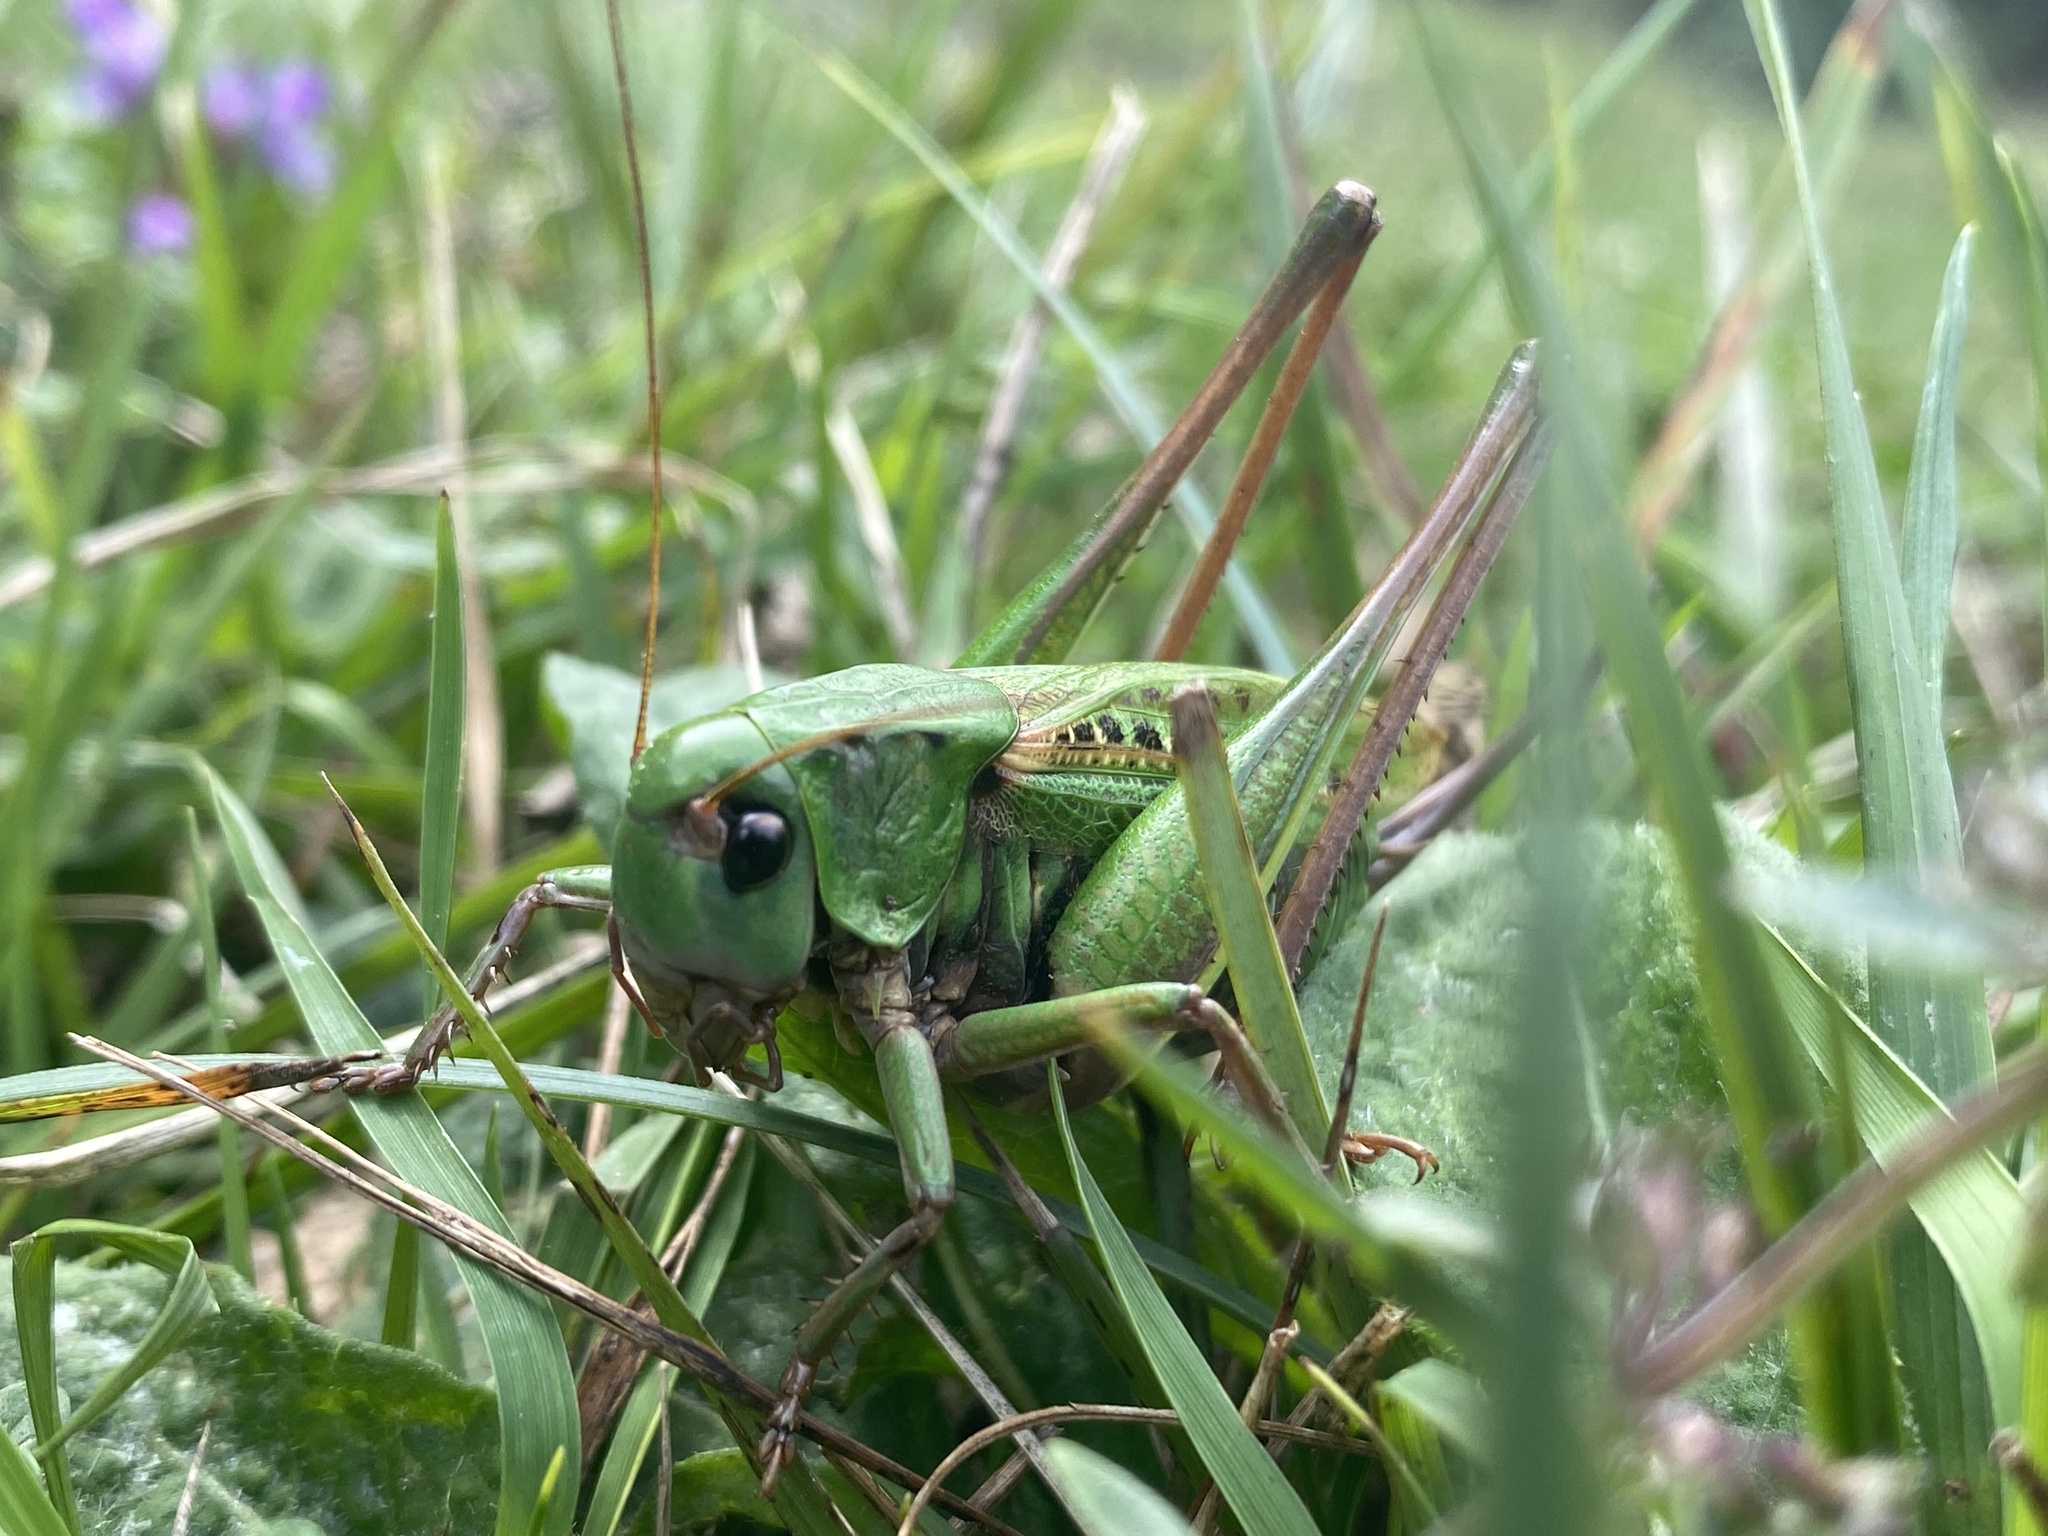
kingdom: Animalia
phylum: Arthropoda
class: Insecta
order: Orthoptera
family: Tettigoniidae
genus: Decticus
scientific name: Decticus verrucivorus
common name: Wart-biter
